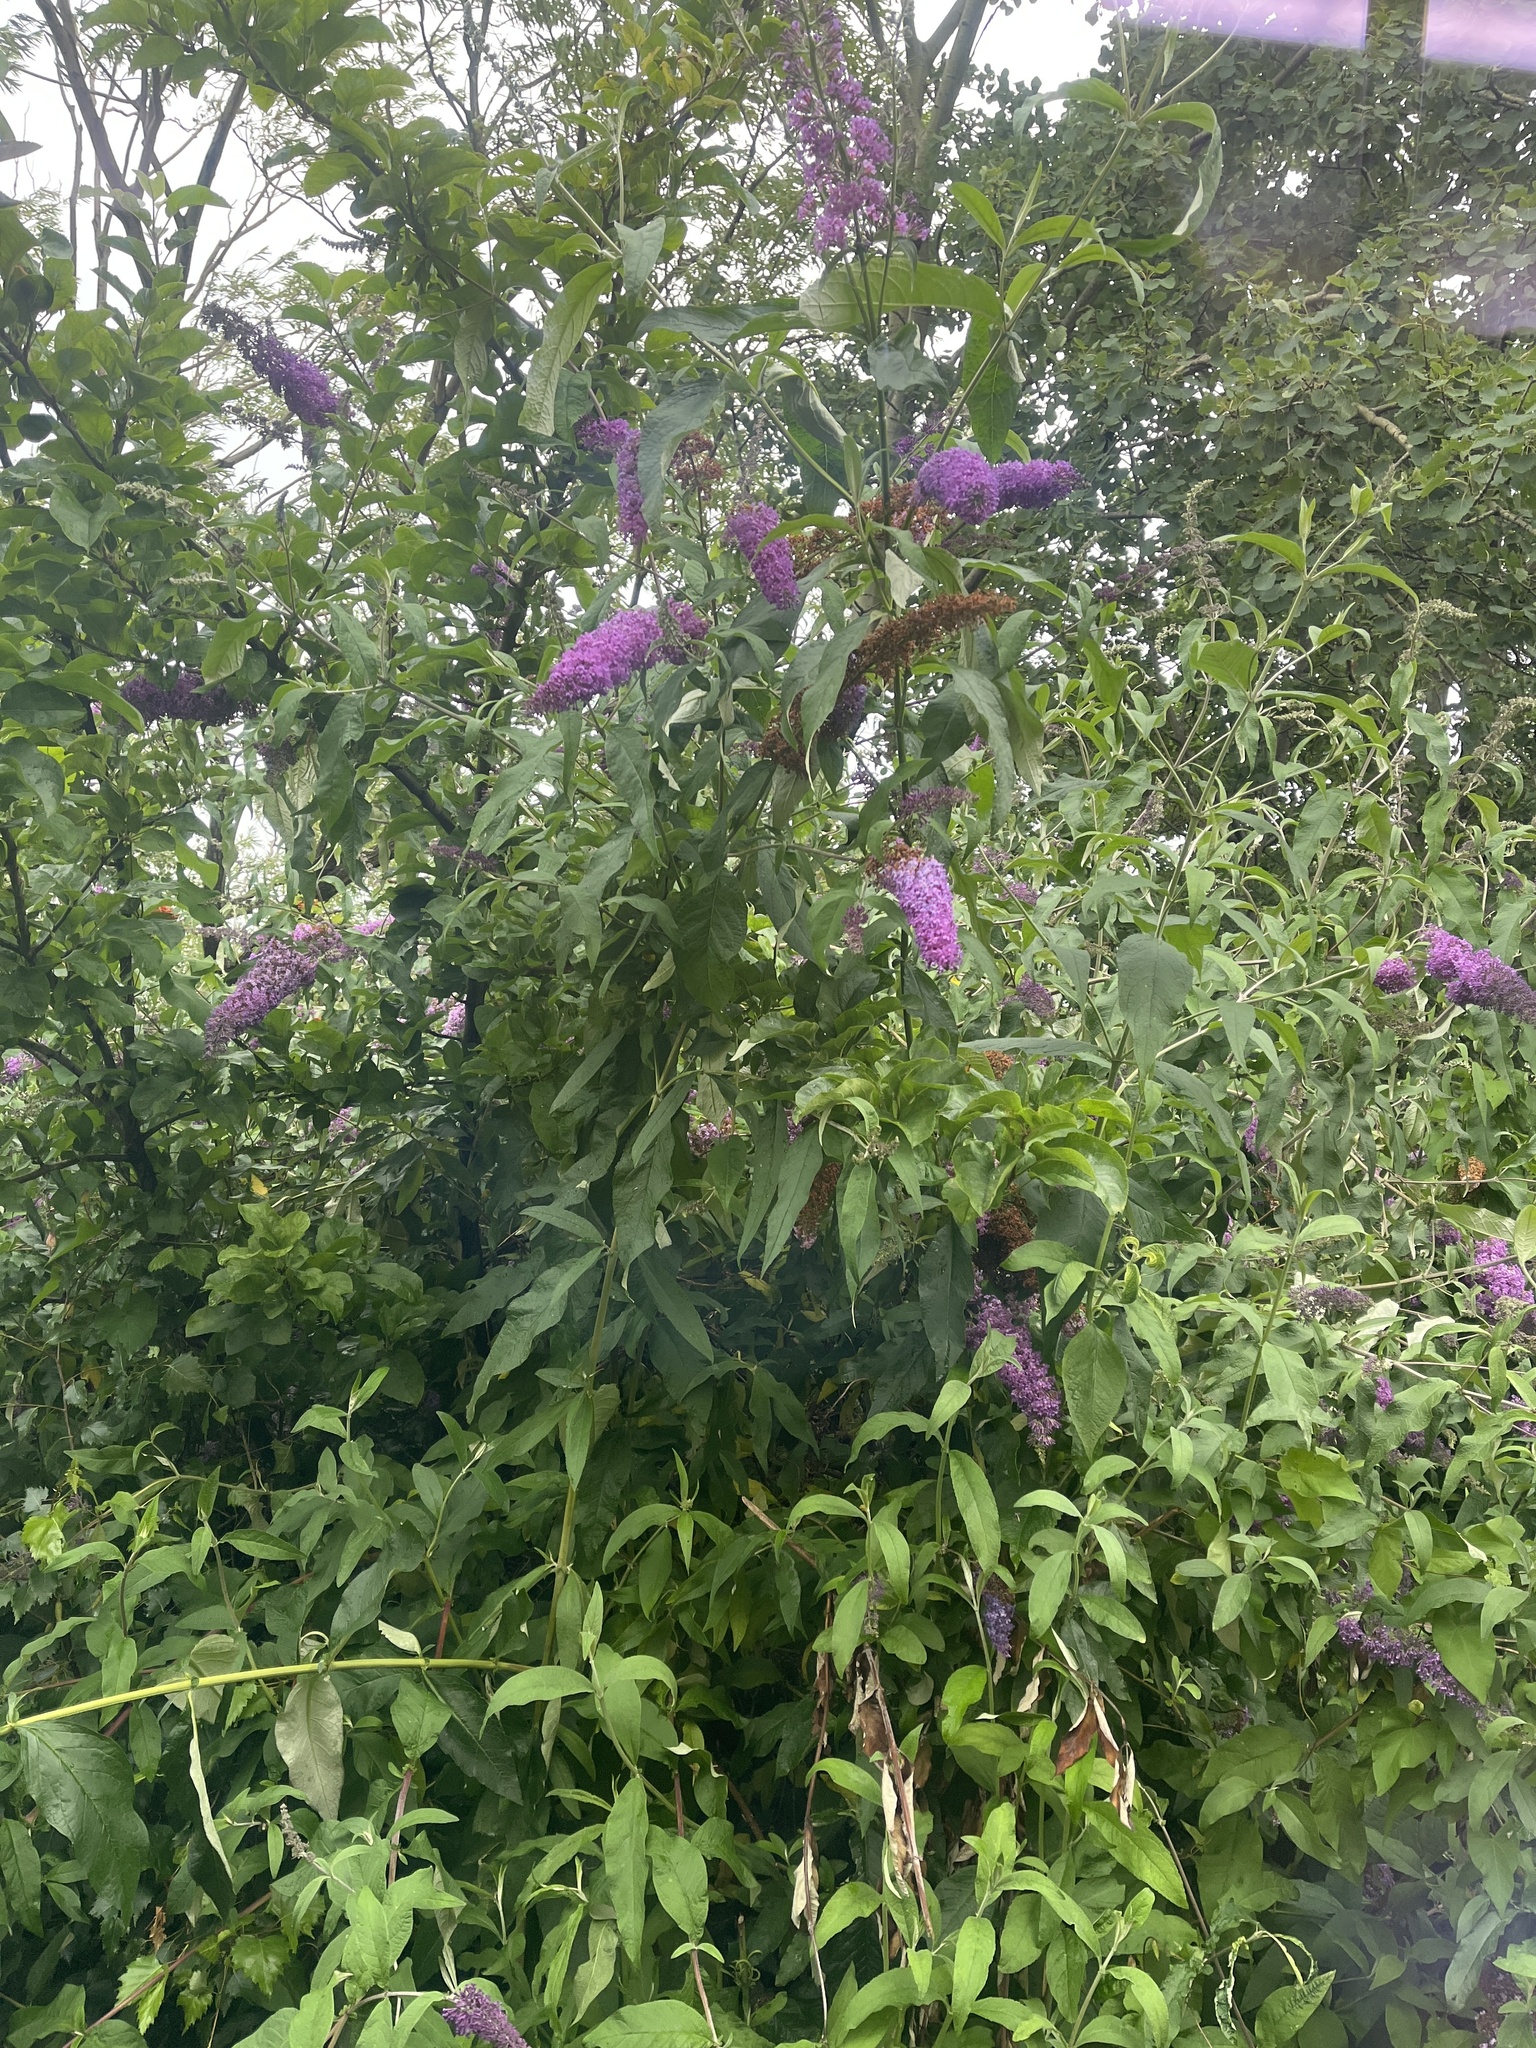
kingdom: Plantae
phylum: Tracheophyta
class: Magnoliopsida
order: Lamiales
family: Scrophulariaceae
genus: Buddleja
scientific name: Buddleja davidii
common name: Butterfly-bush
